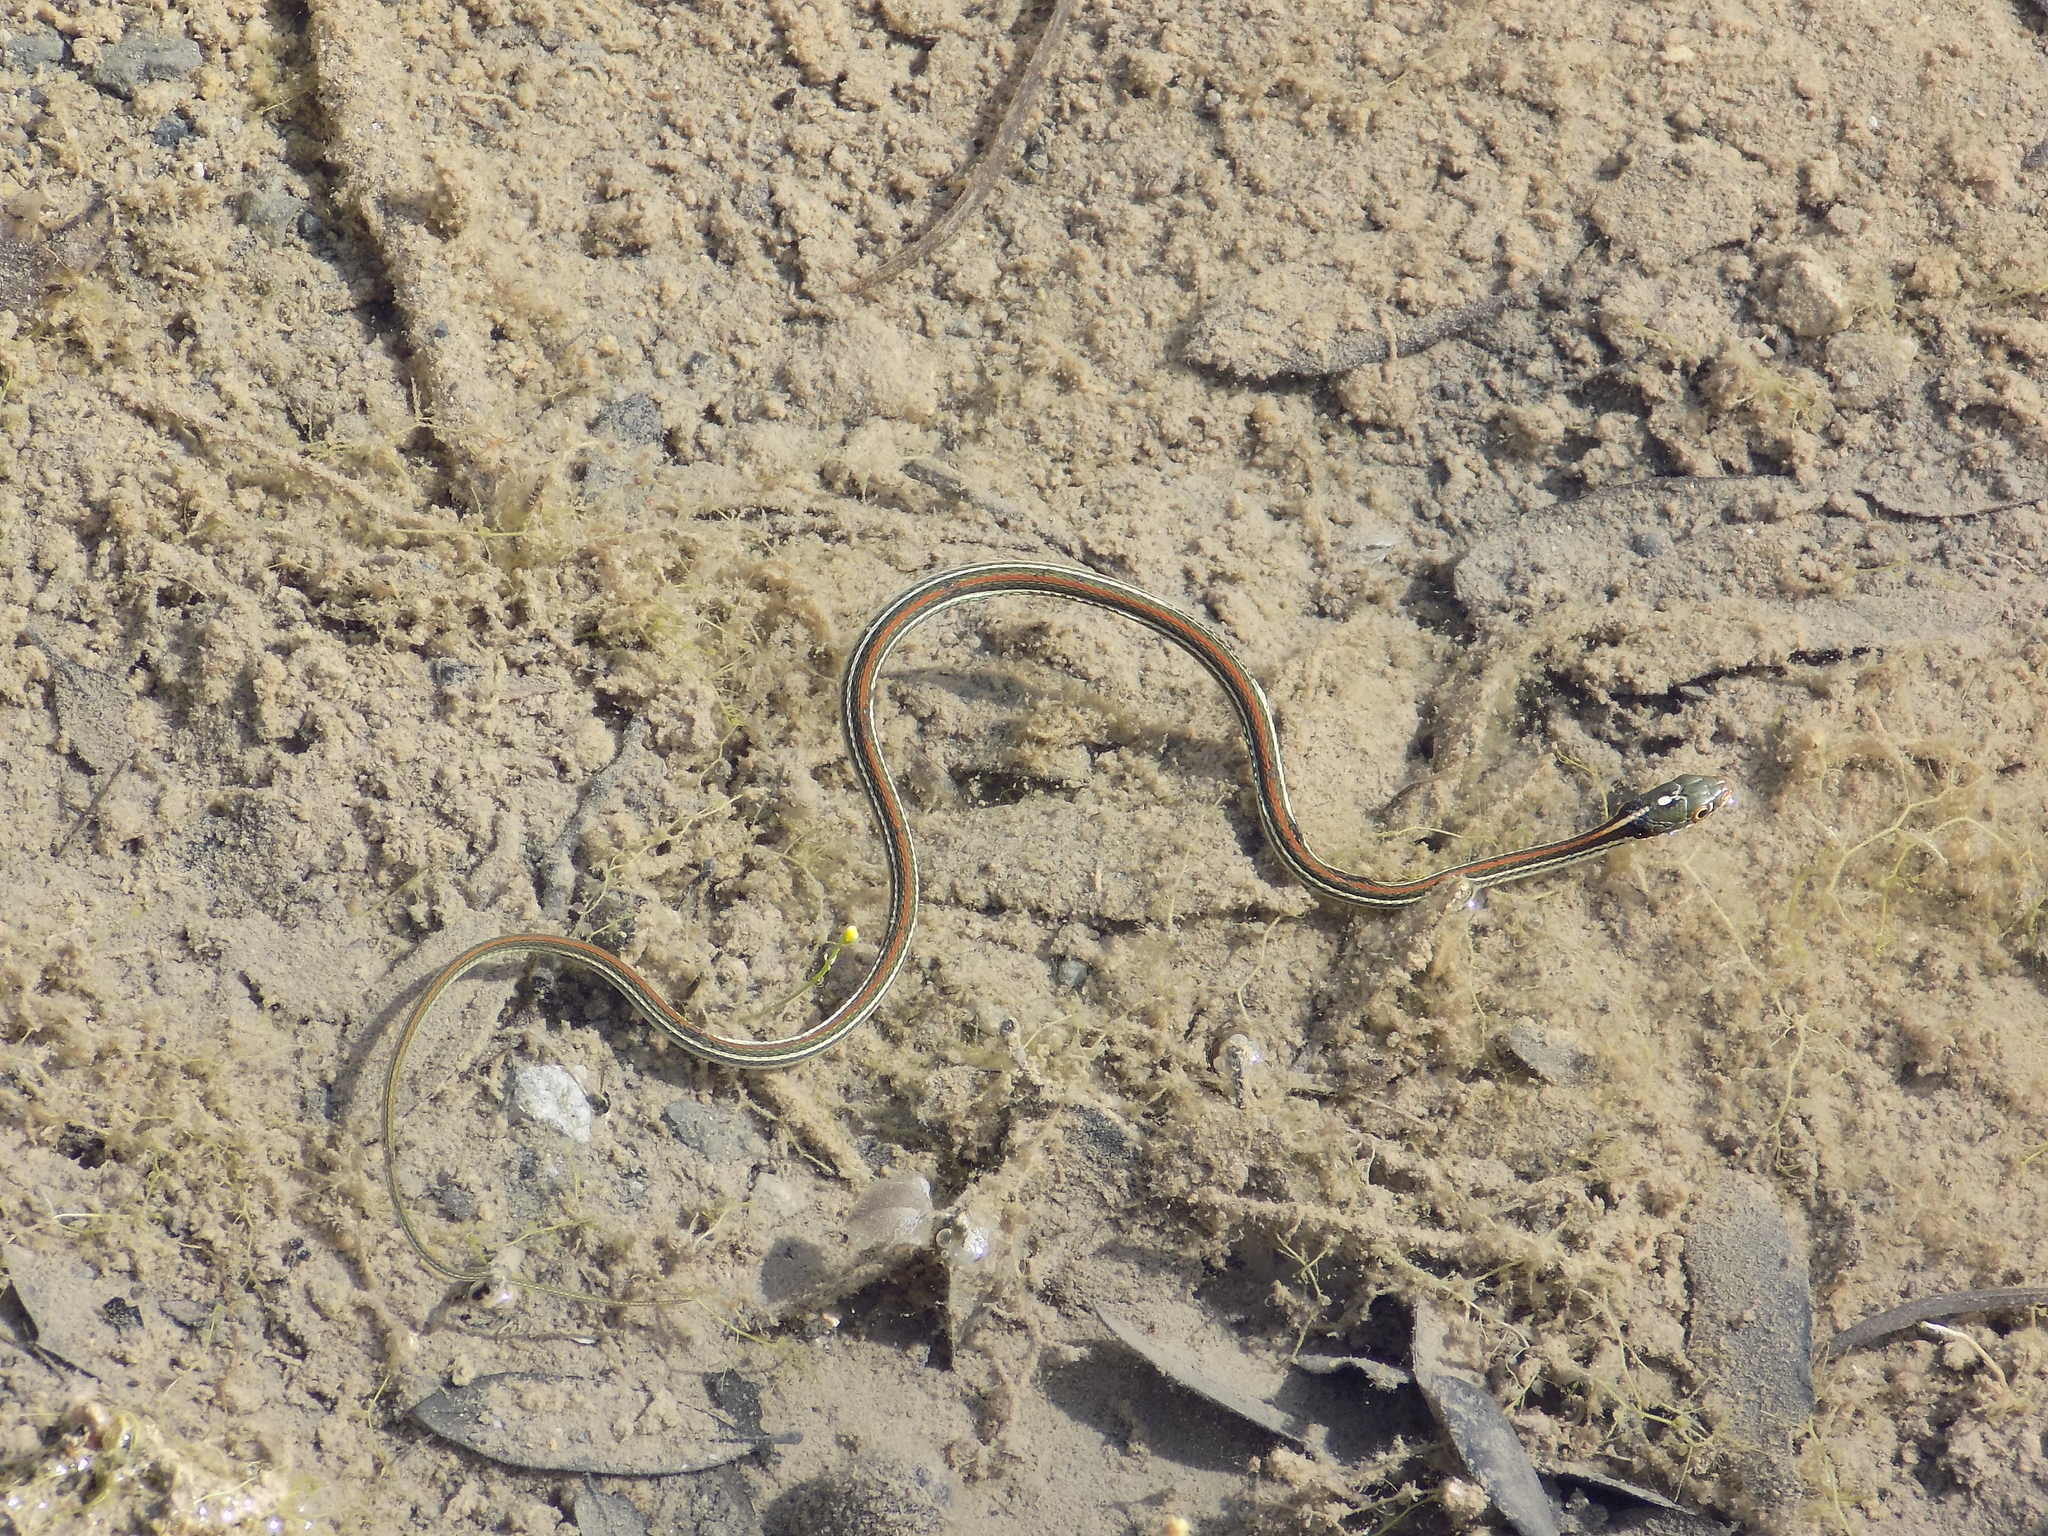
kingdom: Animalia
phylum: Chordata
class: Squamata
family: Colubridae
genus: Thamnophis
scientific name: Thamnophis proximus
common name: Western ribbon snake
